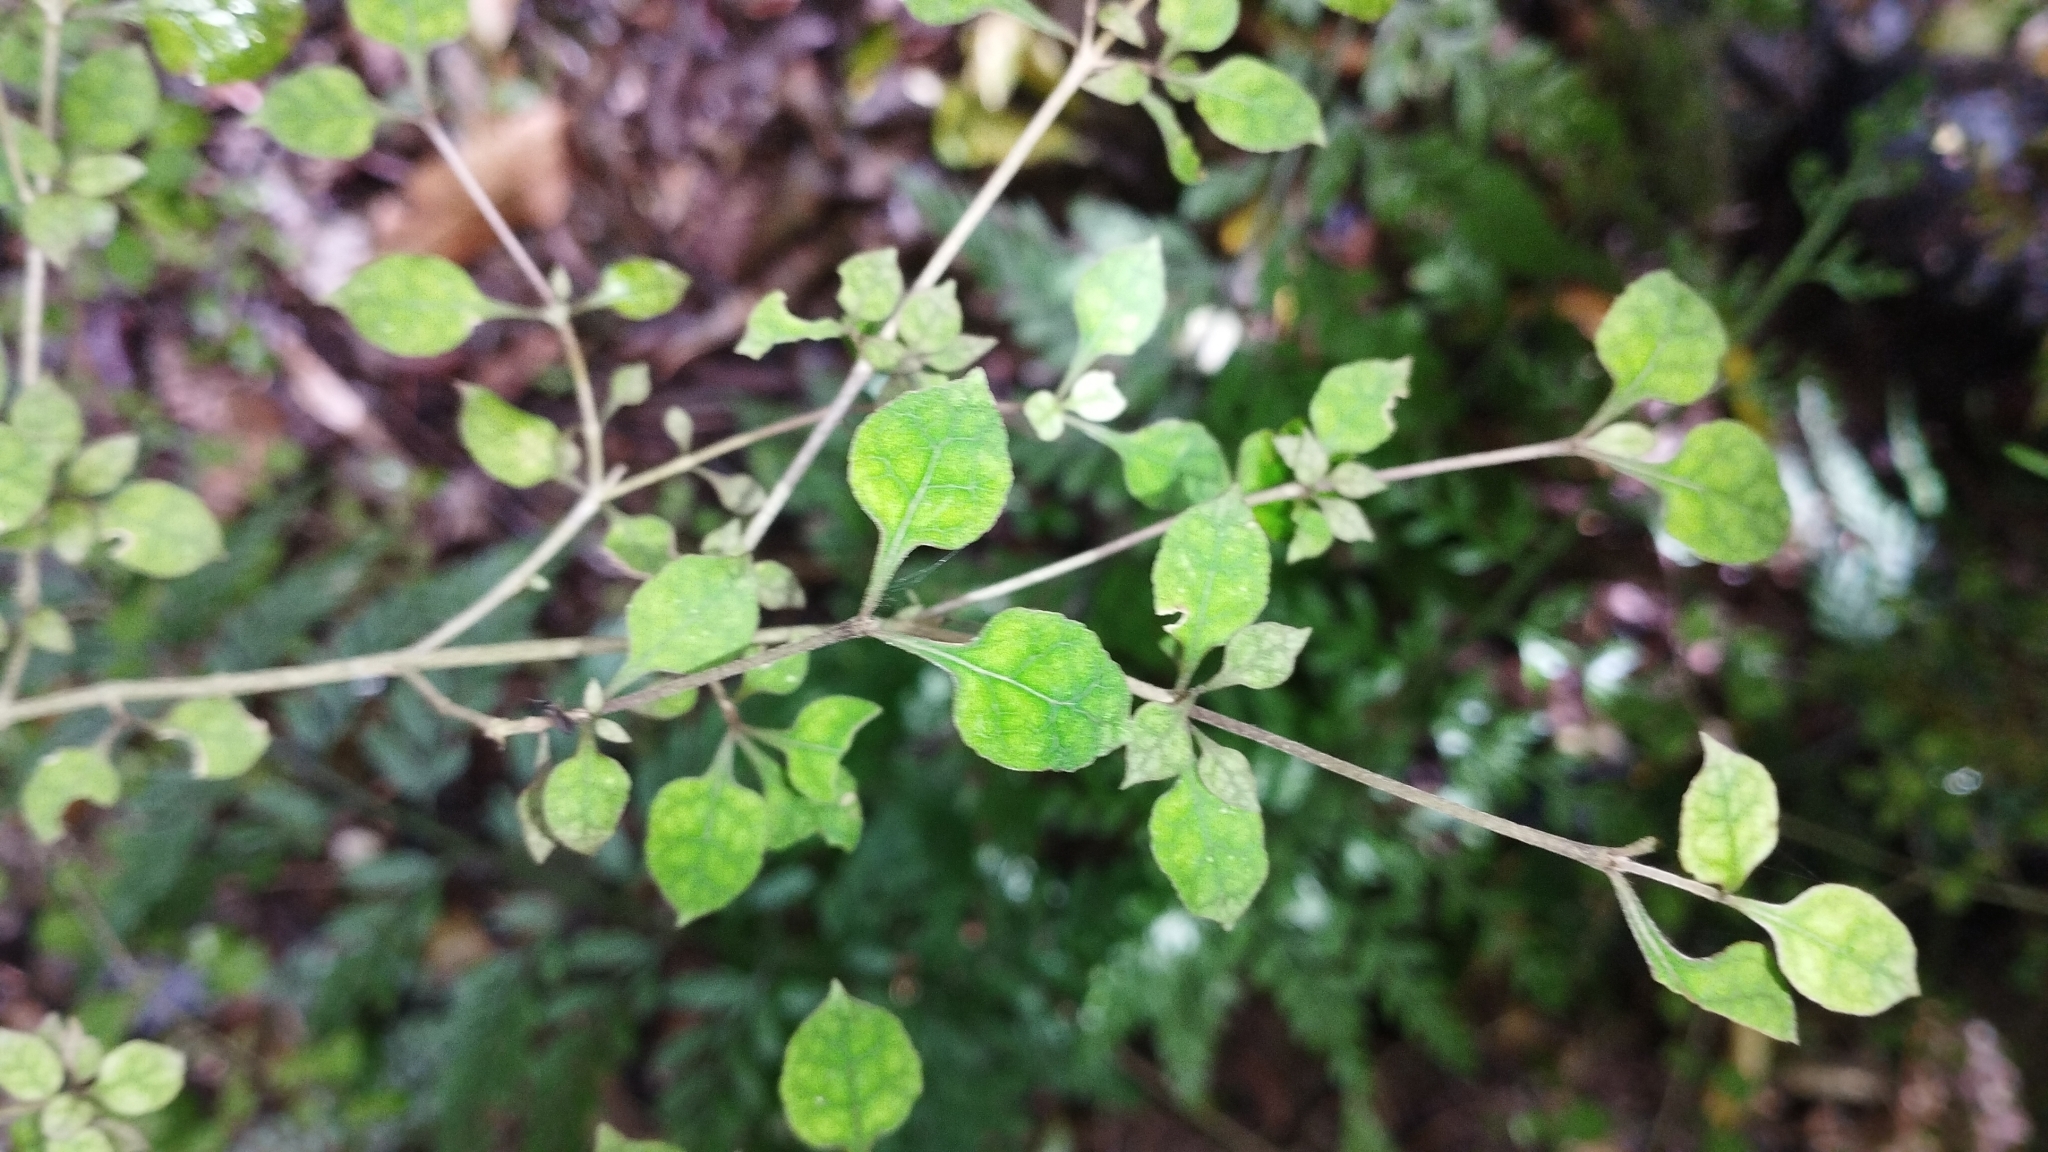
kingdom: Plantae
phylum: Tracheophyta
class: Magnoliopsida
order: Gentianales
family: Rubiaceae
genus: Coprosma
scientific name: Coprosma areolata
